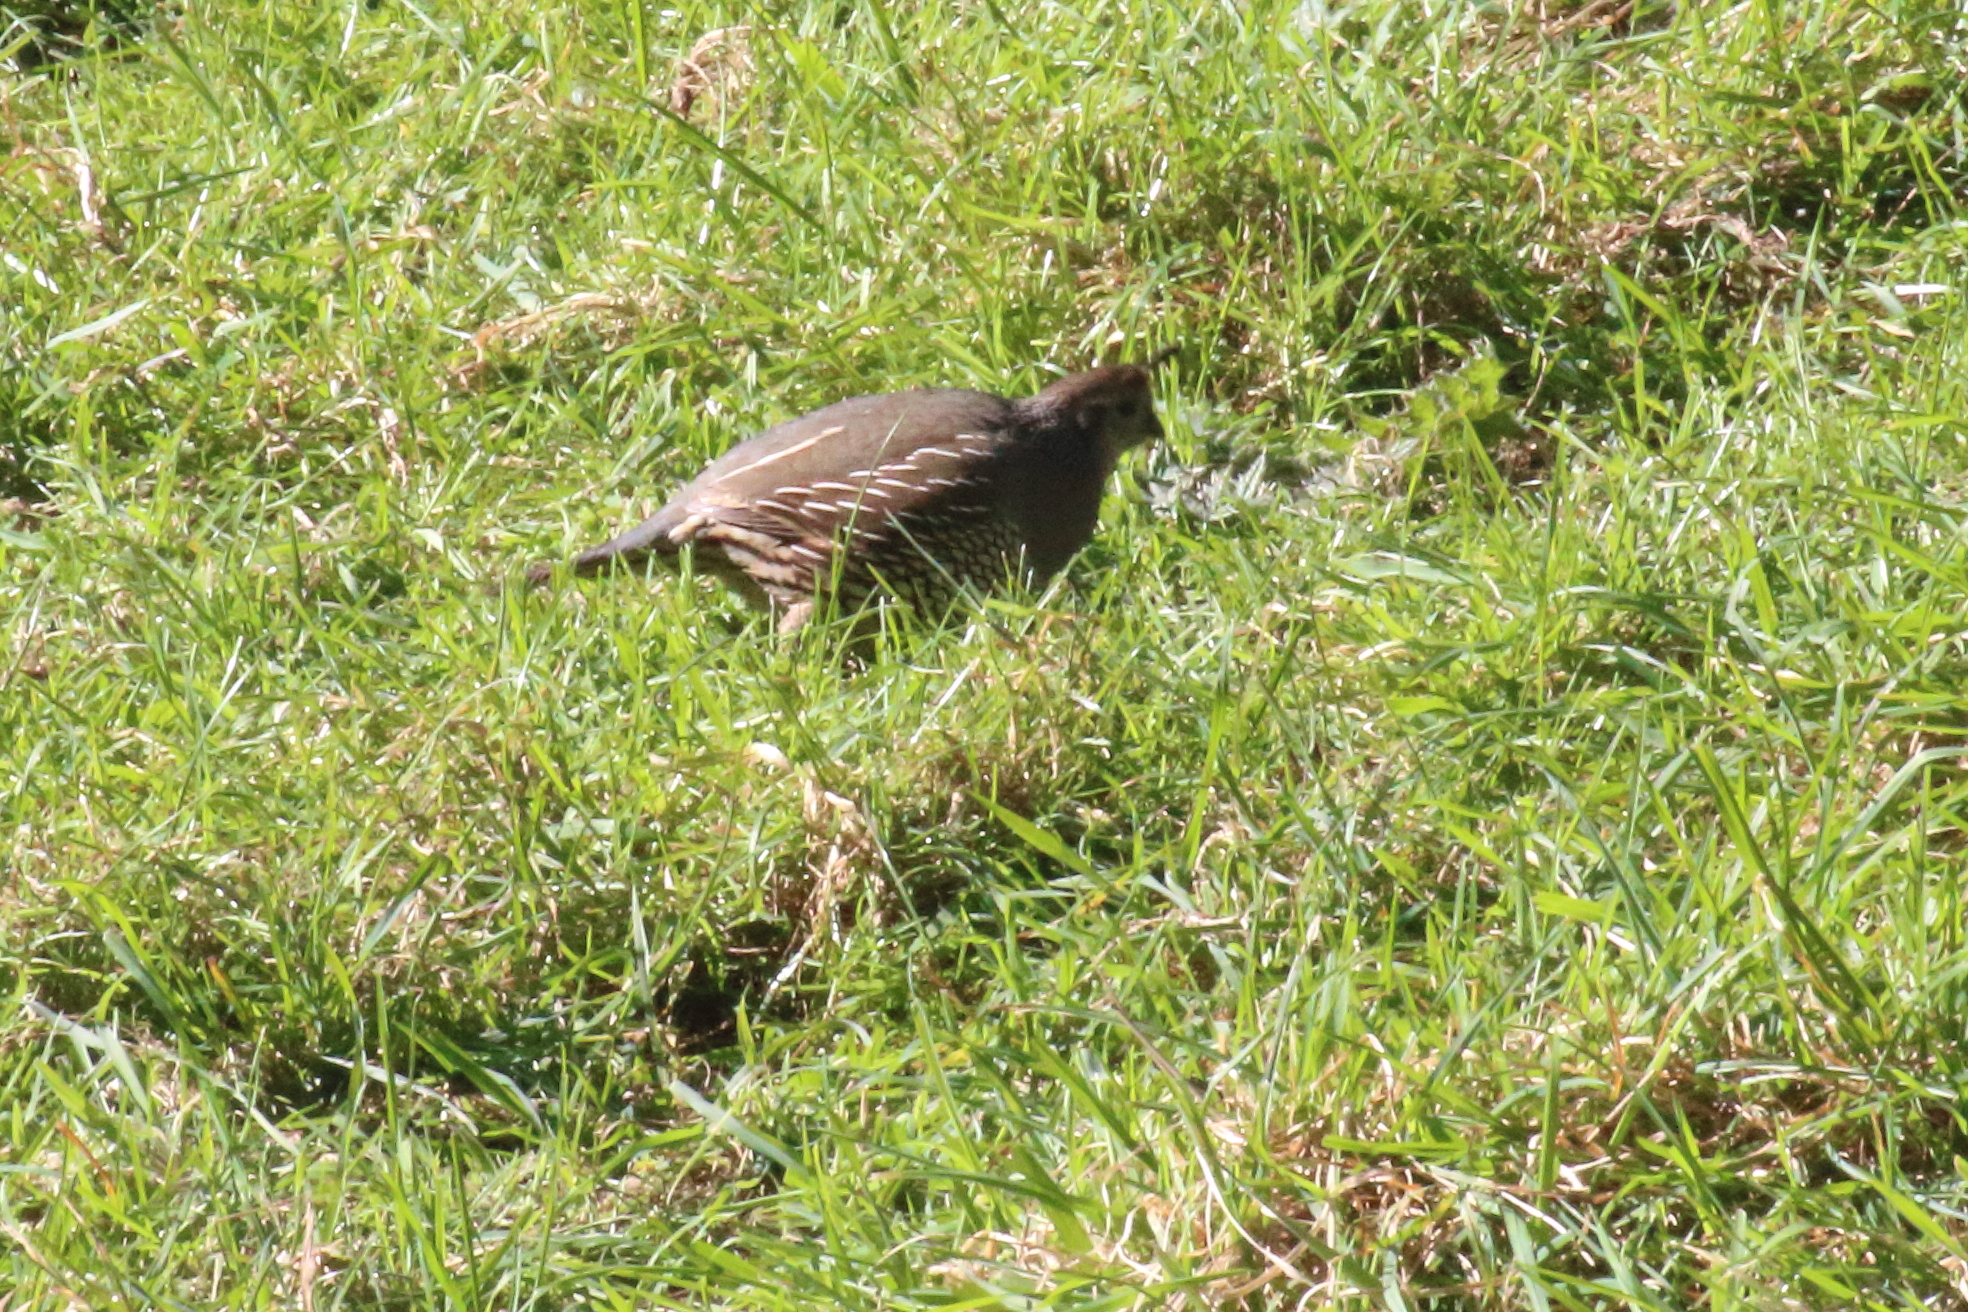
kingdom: Animalia
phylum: Chordata
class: Aves
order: Galliformes
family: Odontophoridae
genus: Callipepla
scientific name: Callipepla californica
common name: California quail
